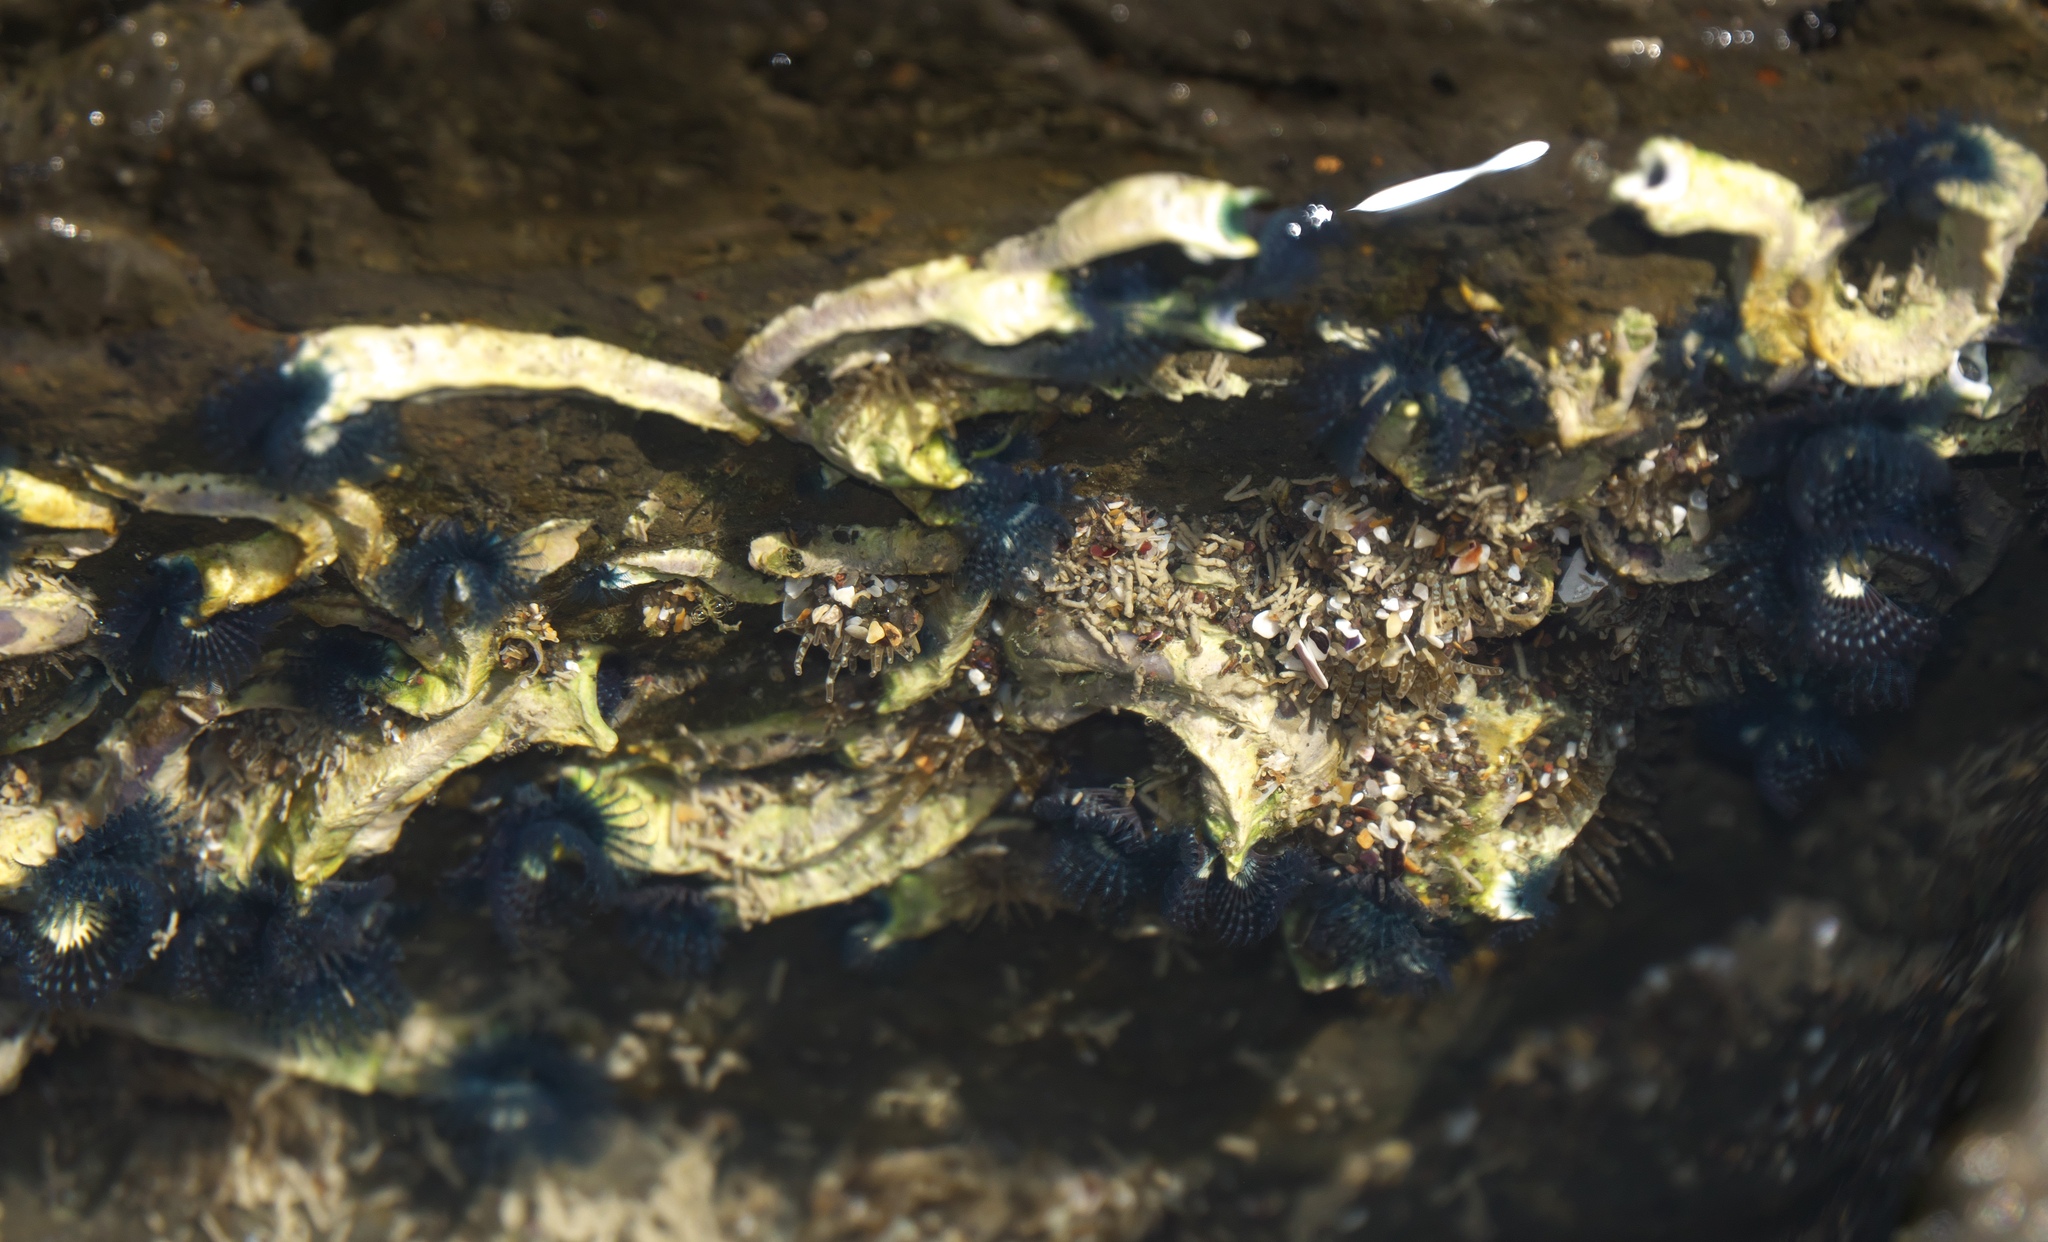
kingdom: Animalia
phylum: Annelida
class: Polychaeta
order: Sabellida
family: Serpulidae
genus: Spirobranchus
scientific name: Spirobranchus cariniferus
